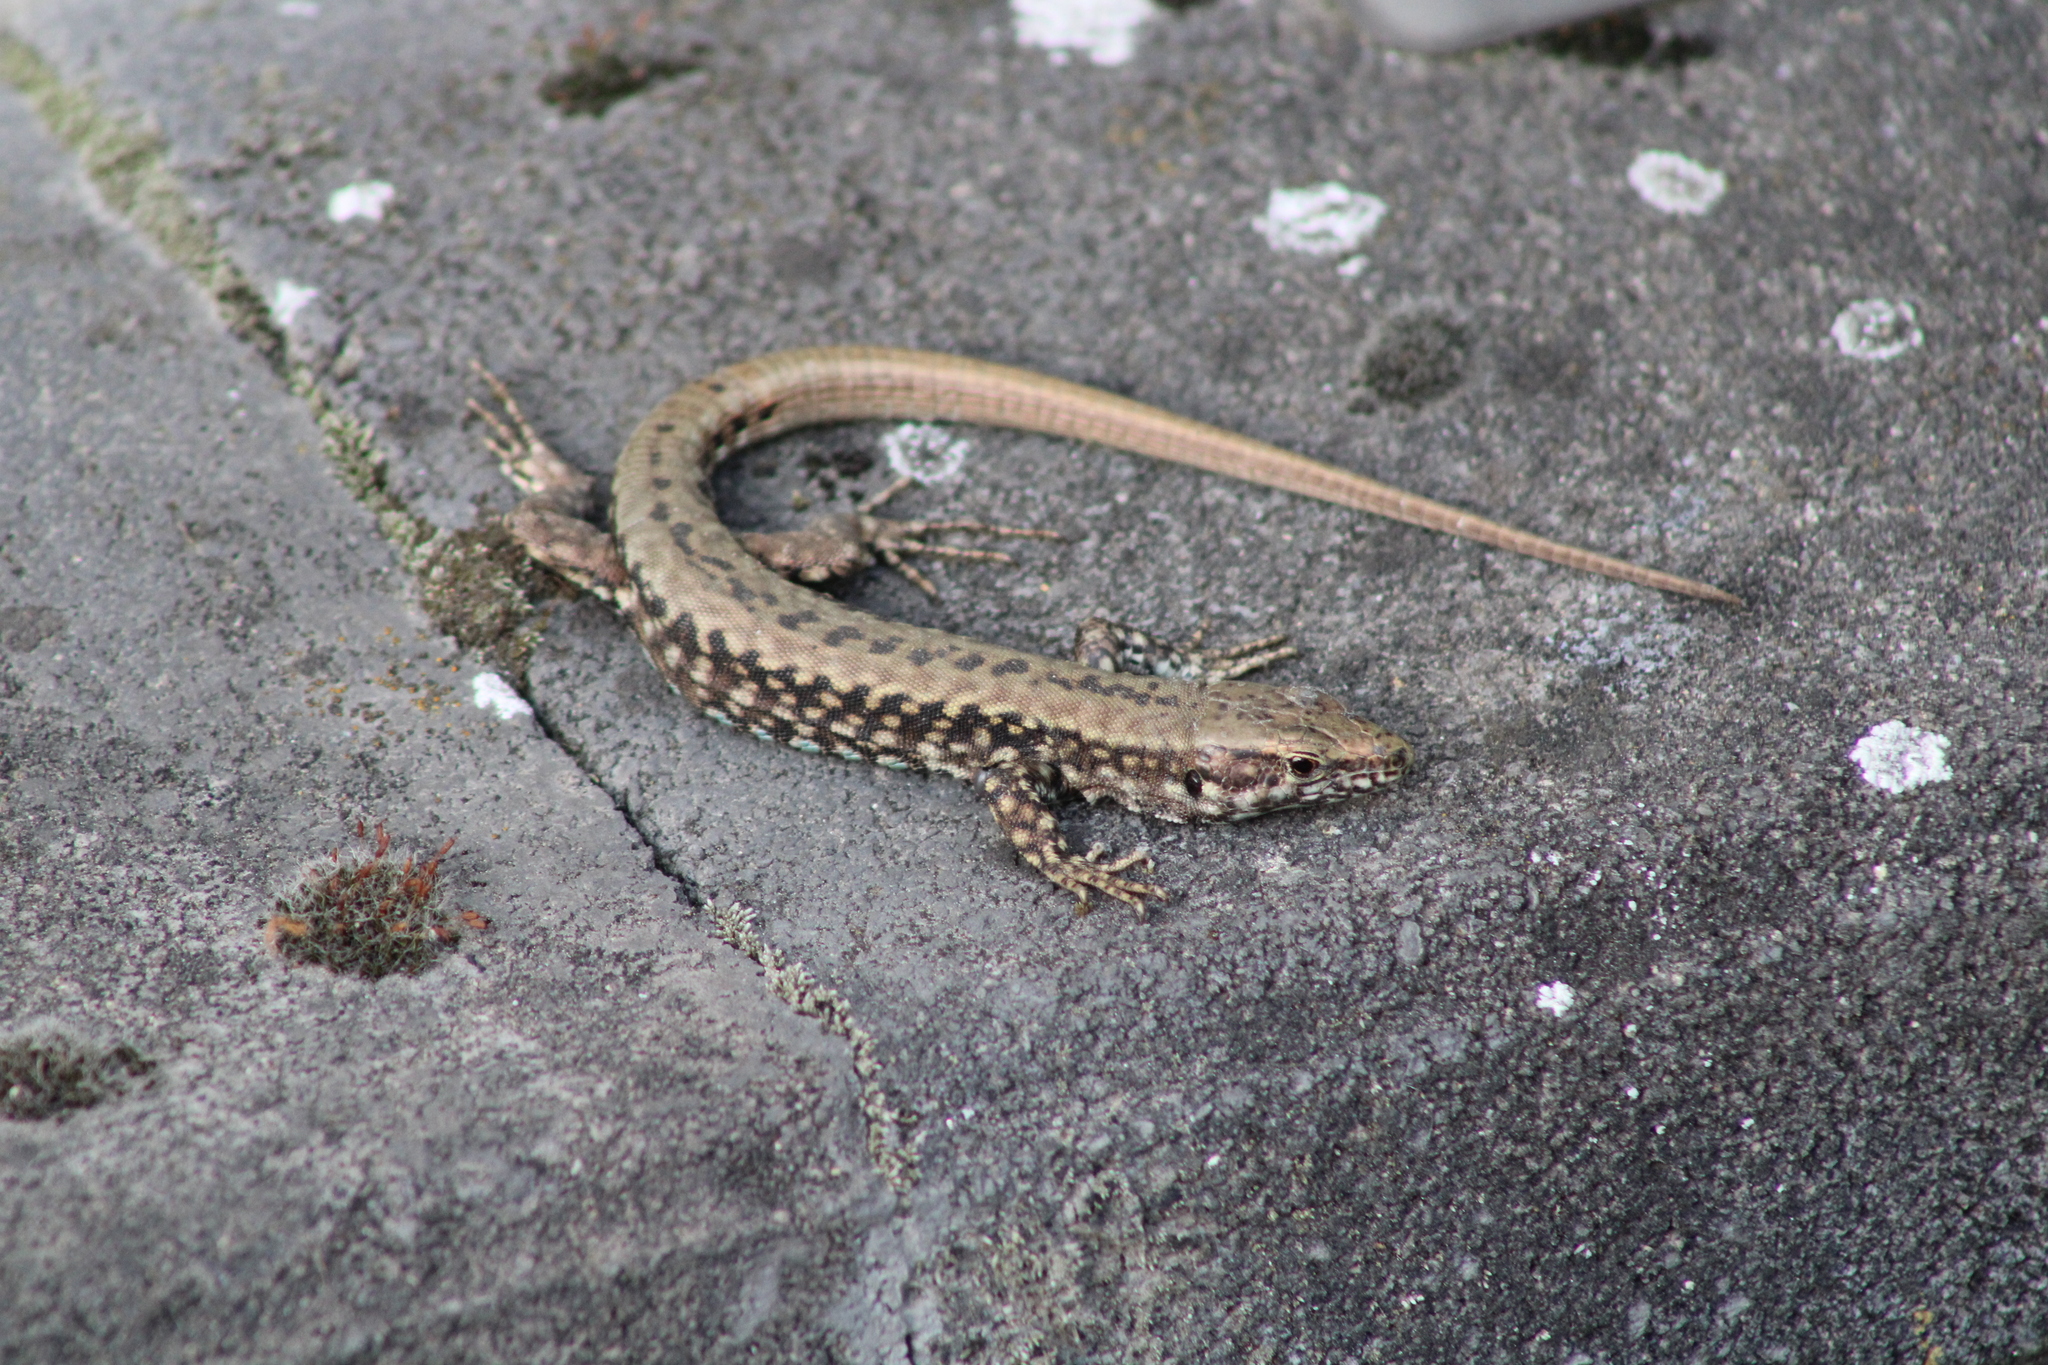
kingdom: Animalia
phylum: Chordata
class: Squamata
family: Lacertidae
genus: Podarcis
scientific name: Podarcis muralis
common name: Common wall lizard
